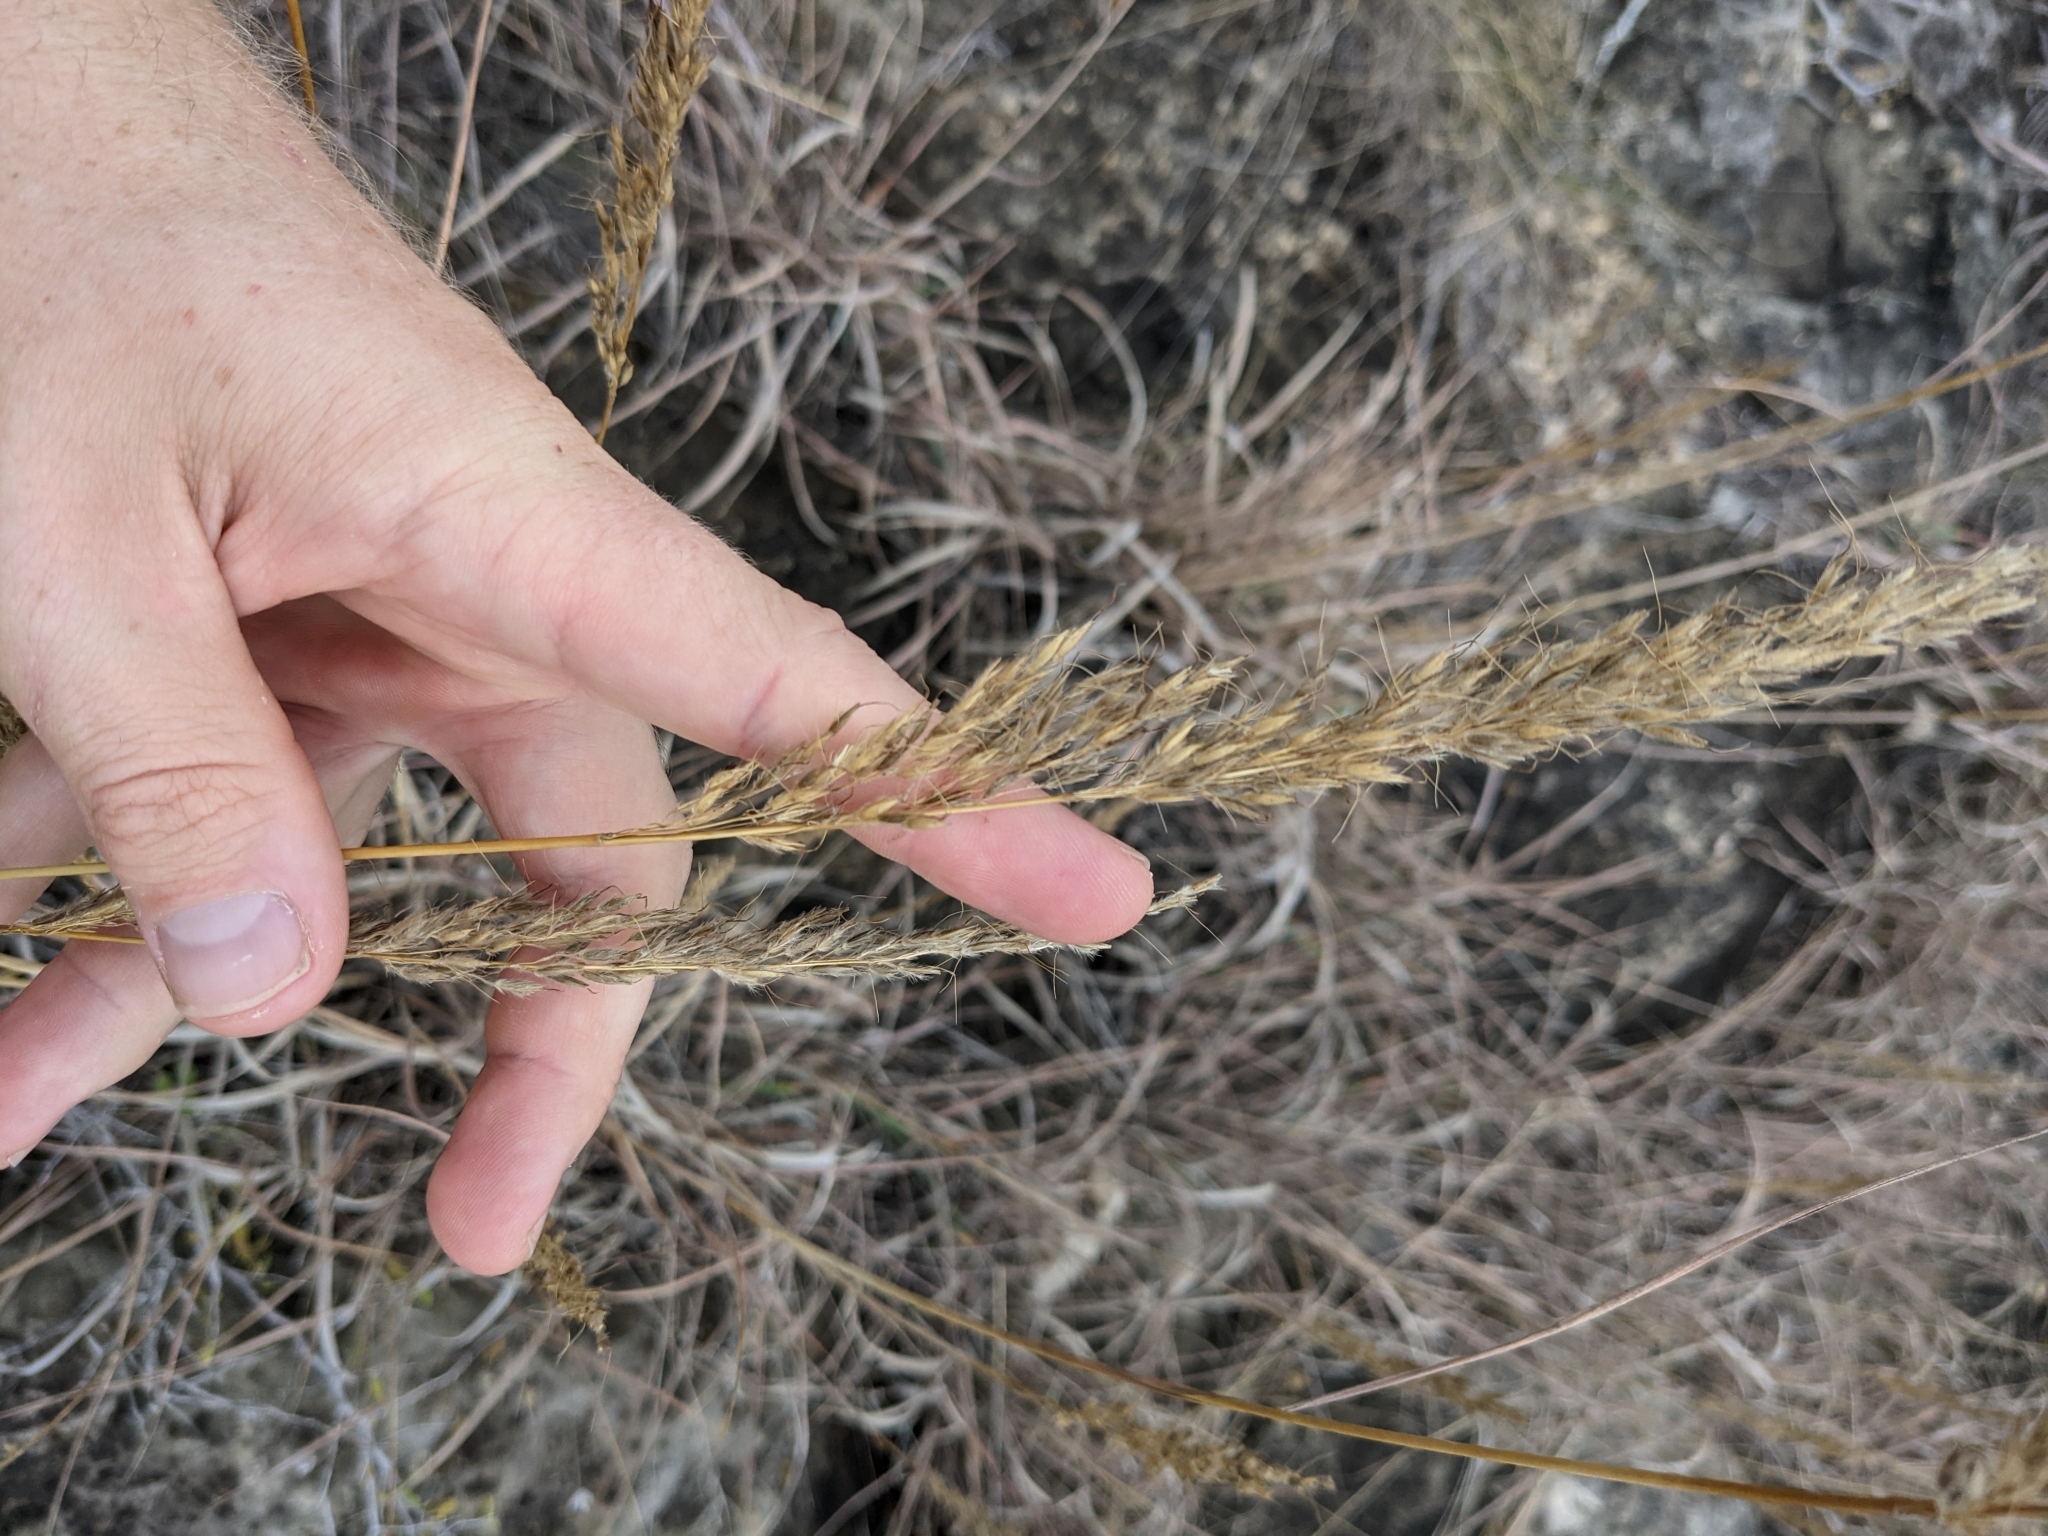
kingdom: Plantae
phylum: Tracheophyta
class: Liliopsida
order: Poales
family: Poaceae
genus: Sorghastrum
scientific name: Sorghastrum nutans
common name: Indian grass
